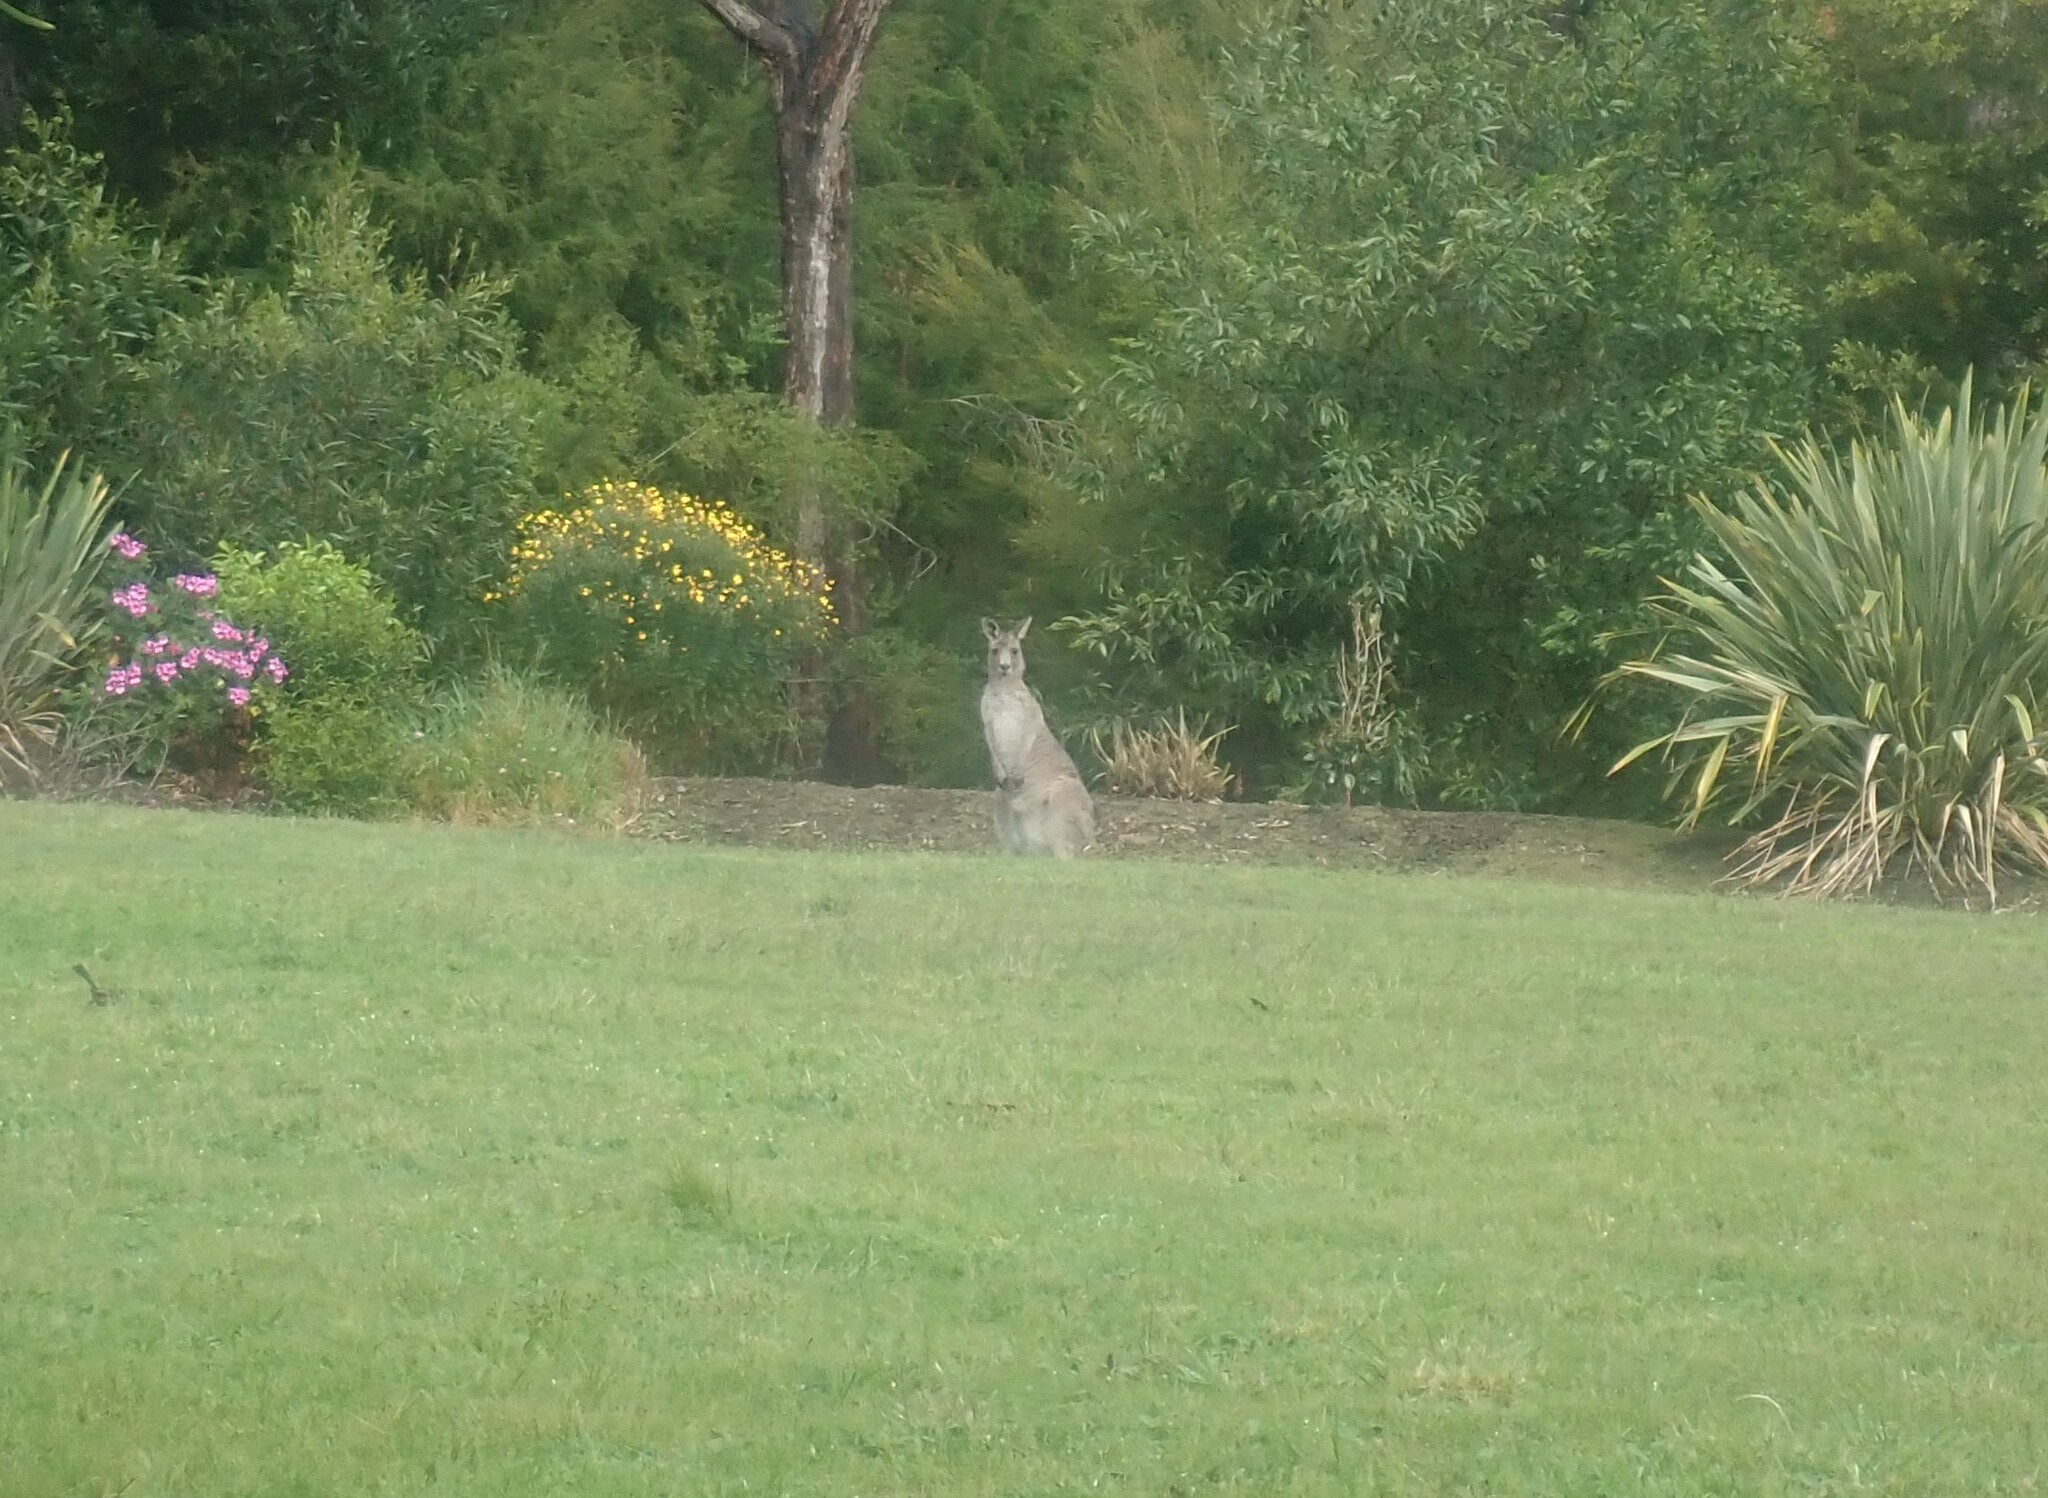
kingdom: Animalia
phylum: Chordata
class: Mammalia
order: Diprotodontia
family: Macropodidae
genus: Macropus
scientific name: Macropus giganteus
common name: Eastern grey kangaroo
